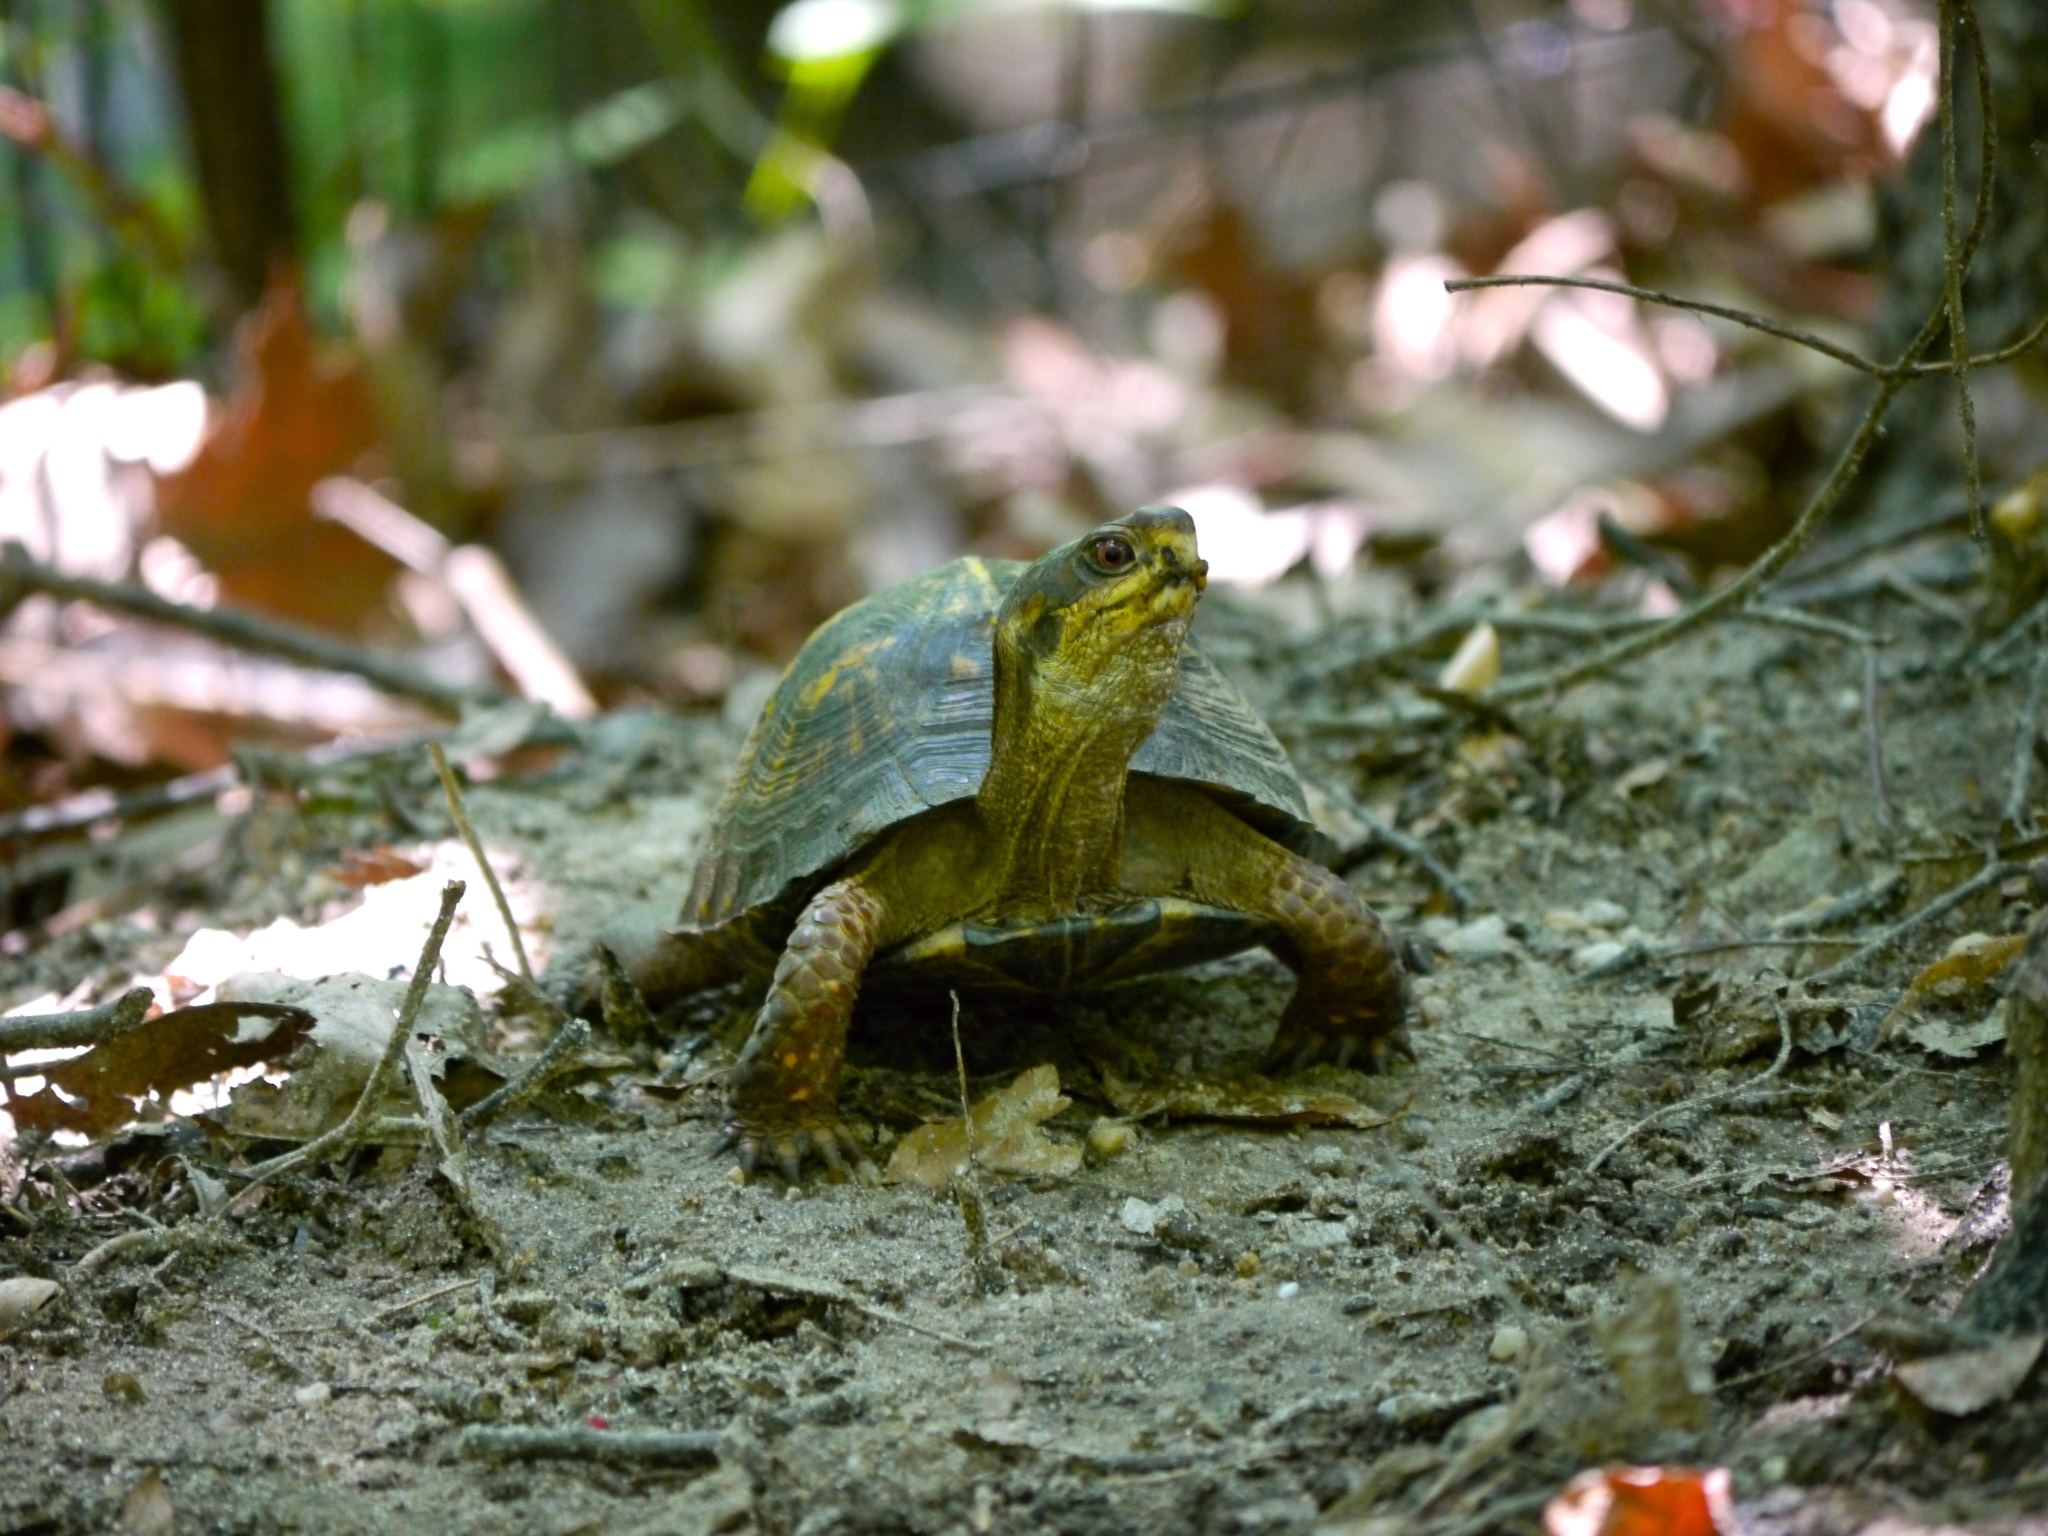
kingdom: Animalia
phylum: Chordata
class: Testudines
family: Emydidae
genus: Terrapene
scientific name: Terrapene carolina
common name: Common box turtle
